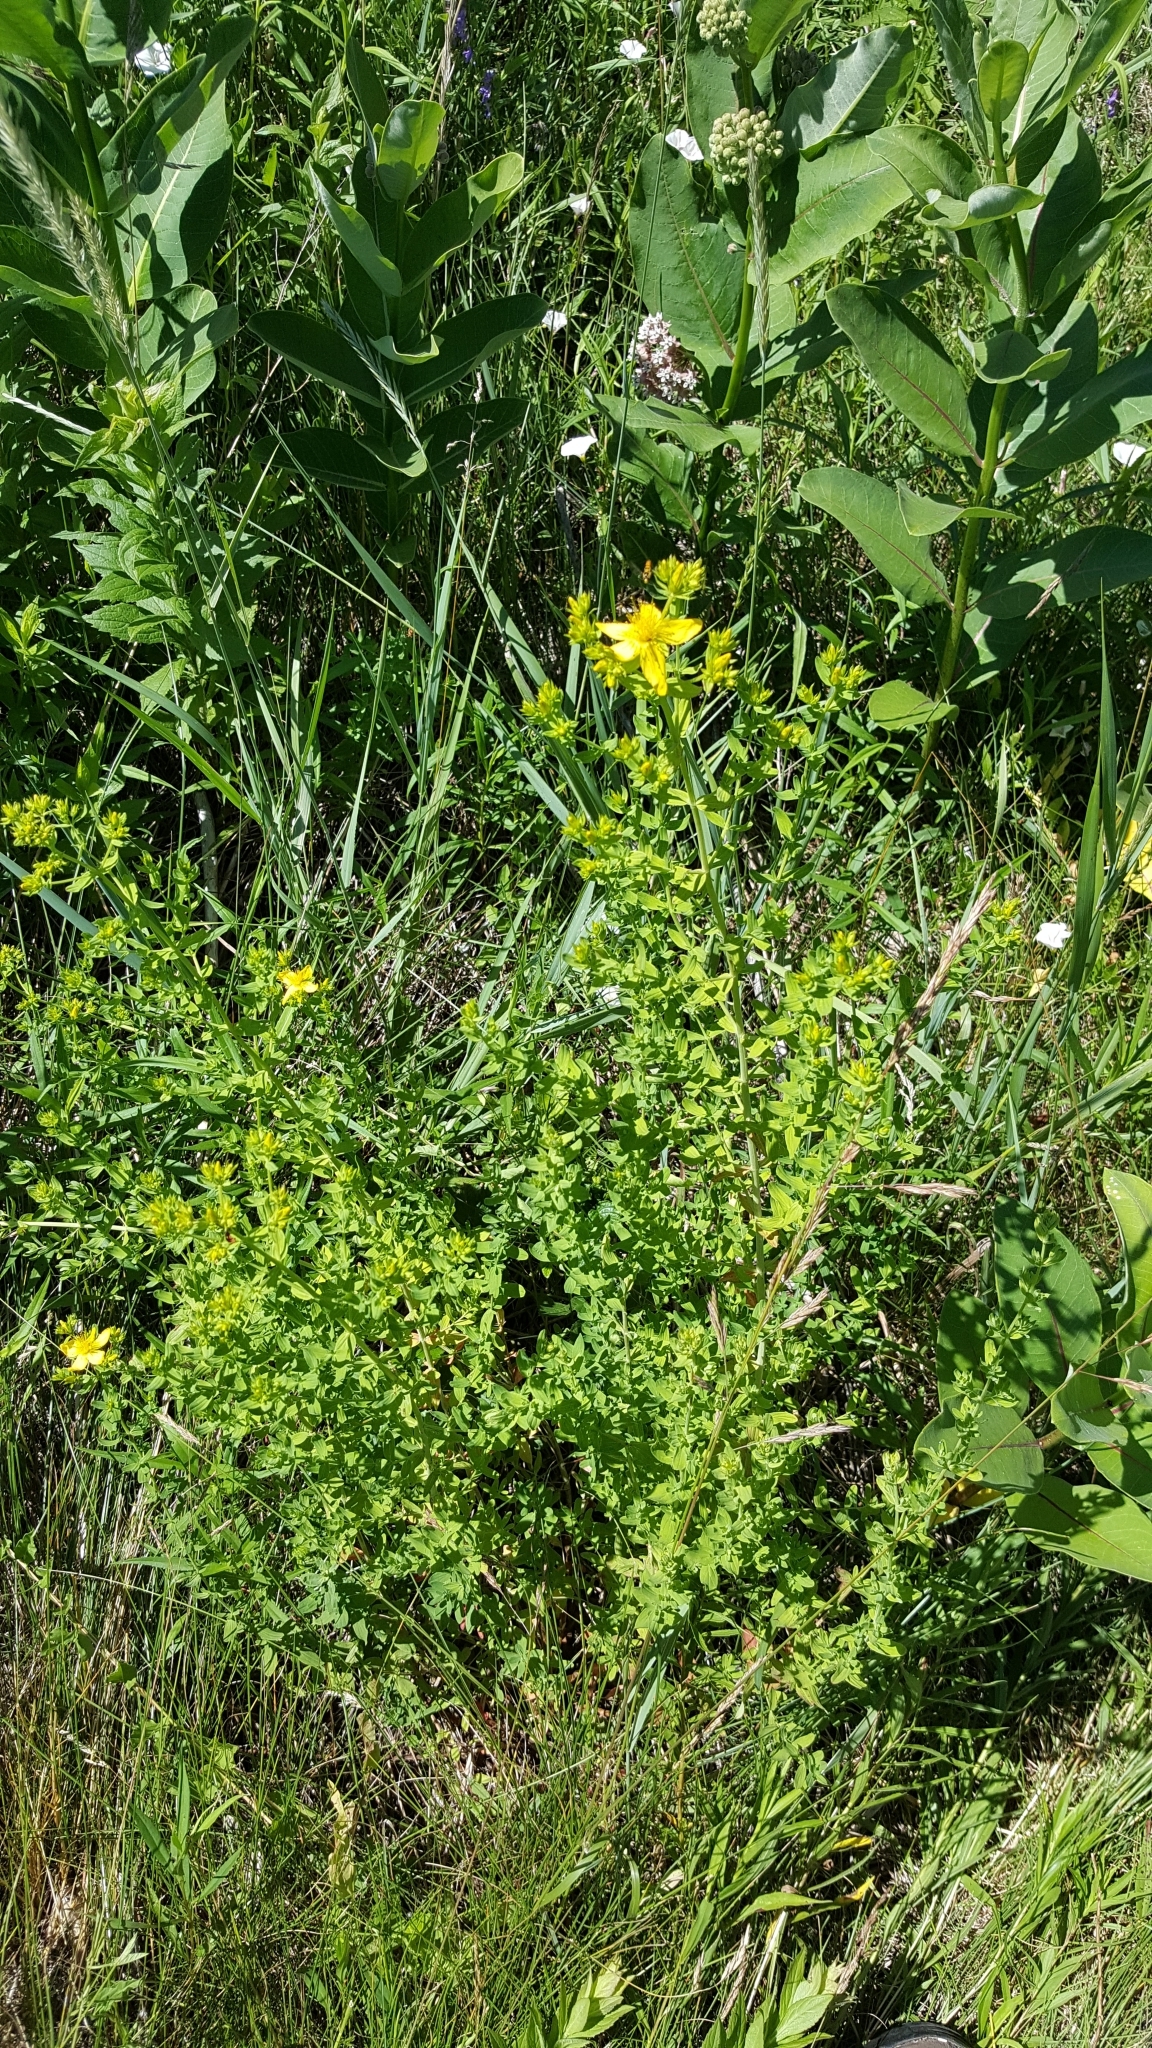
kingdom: Plantae
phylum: Tracheophyta
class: Magnoliopsida
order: Malpighiales
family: Hypericaceae
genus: Hypericum
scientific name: Hypericum perforatum
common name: Common st. johnswort
